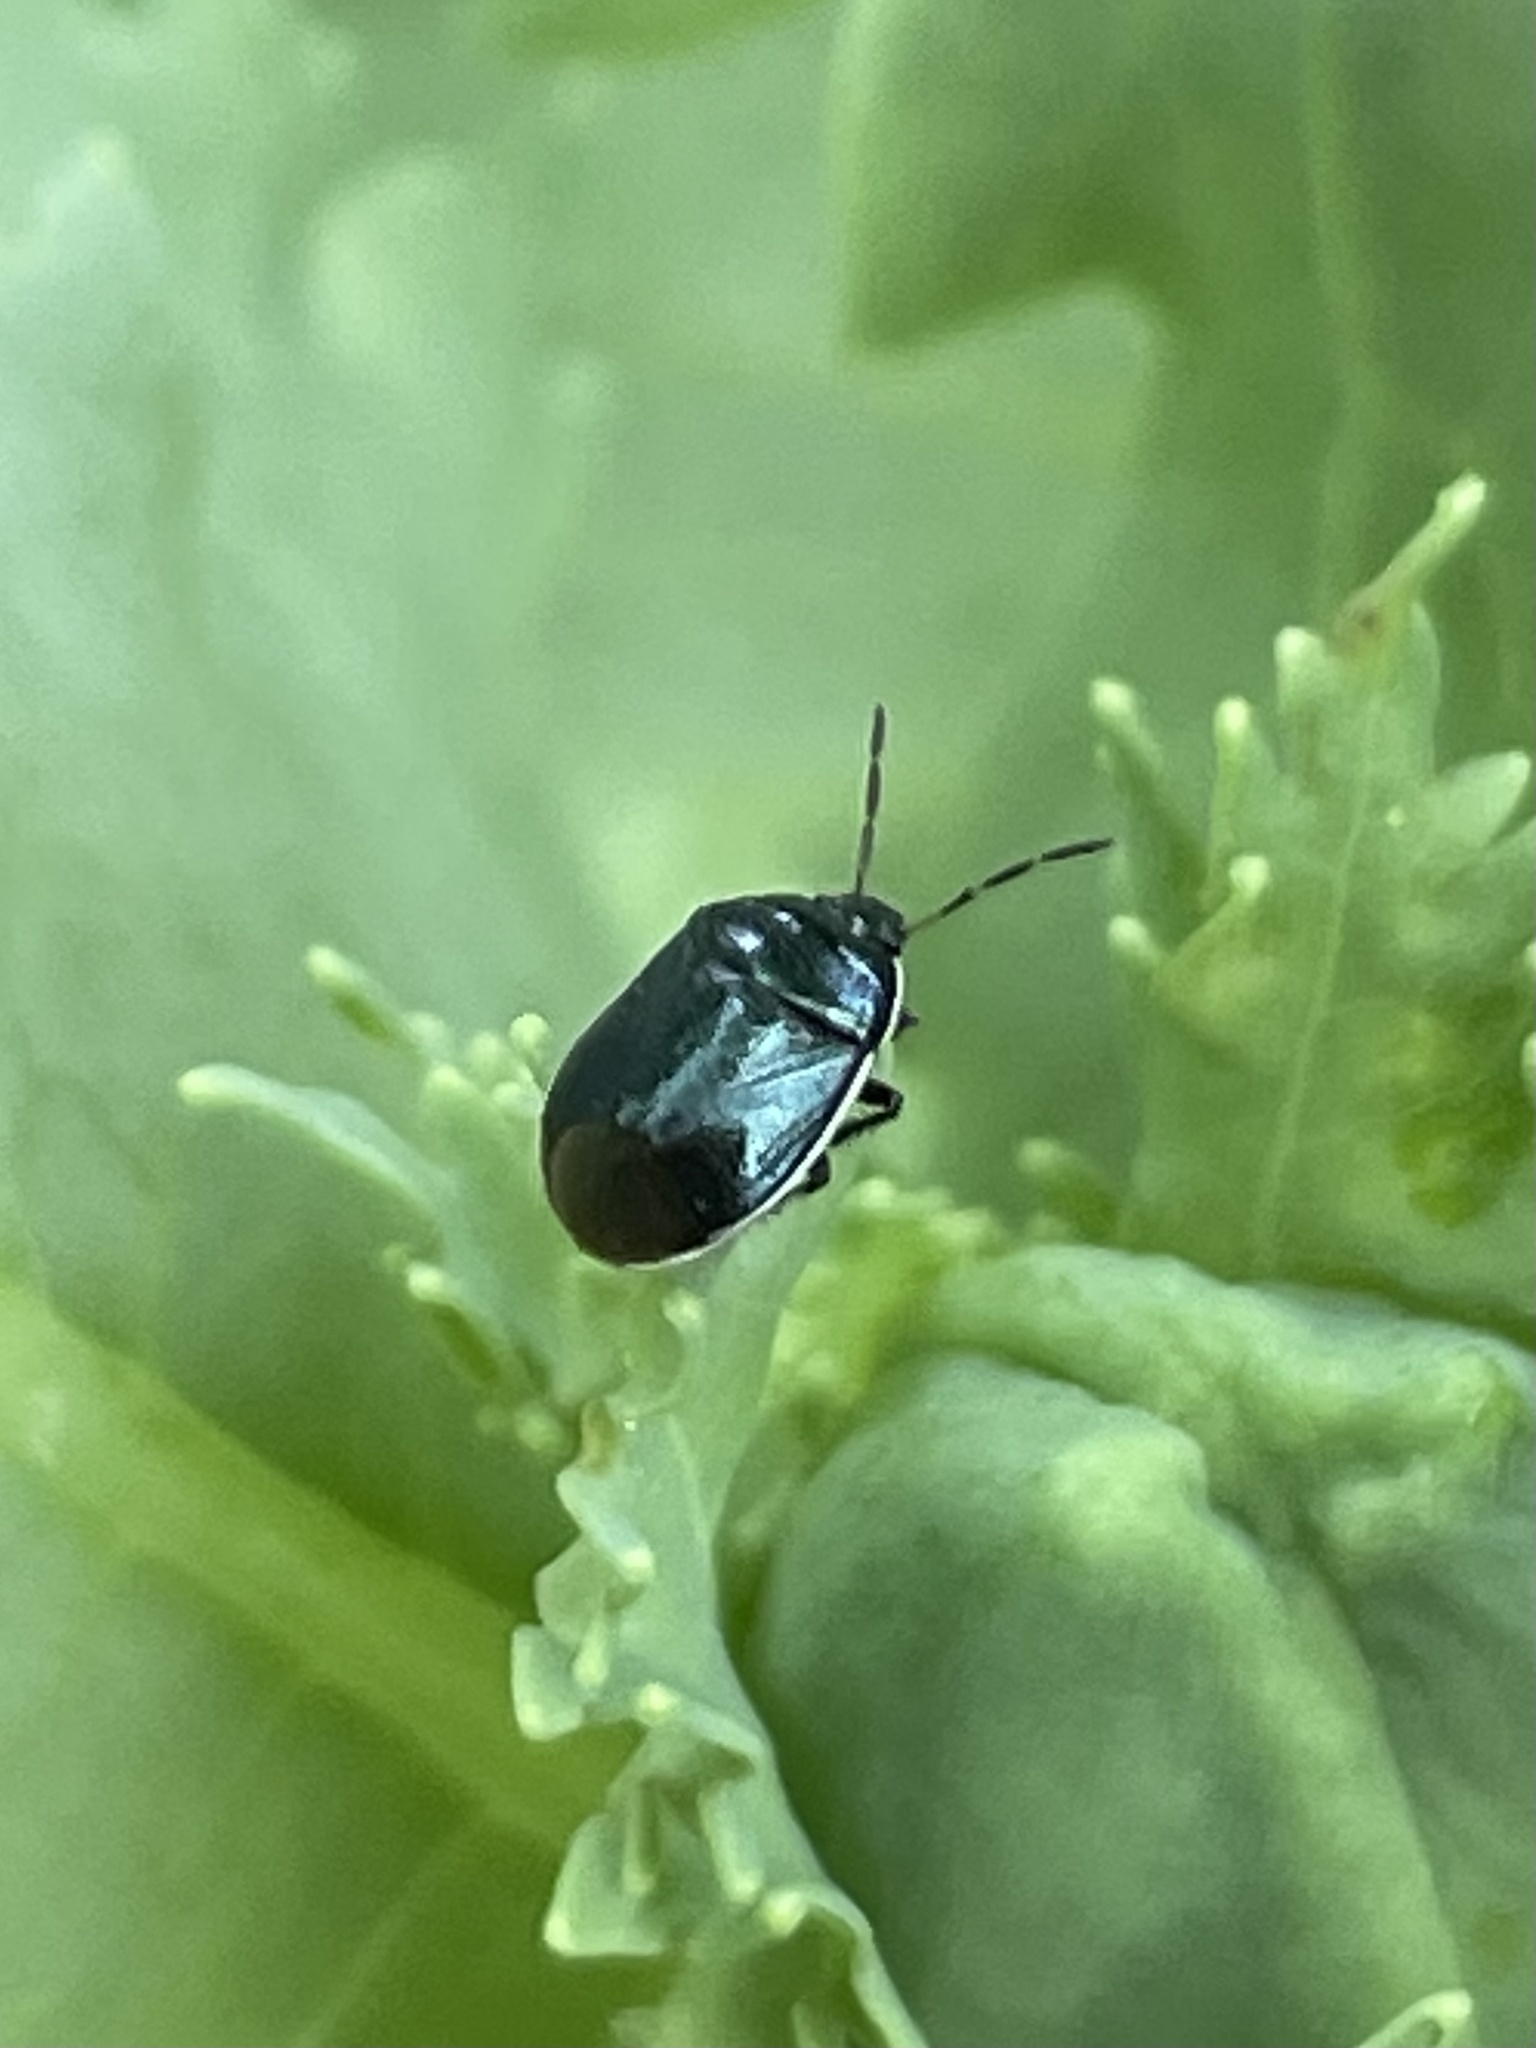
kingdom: Animalia
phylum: Arthropoda
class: Insecta
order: Hemiptera
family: Cydnidae
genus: Sehirus
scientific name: Sehirus cinctus
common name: White-margined burrower bug
